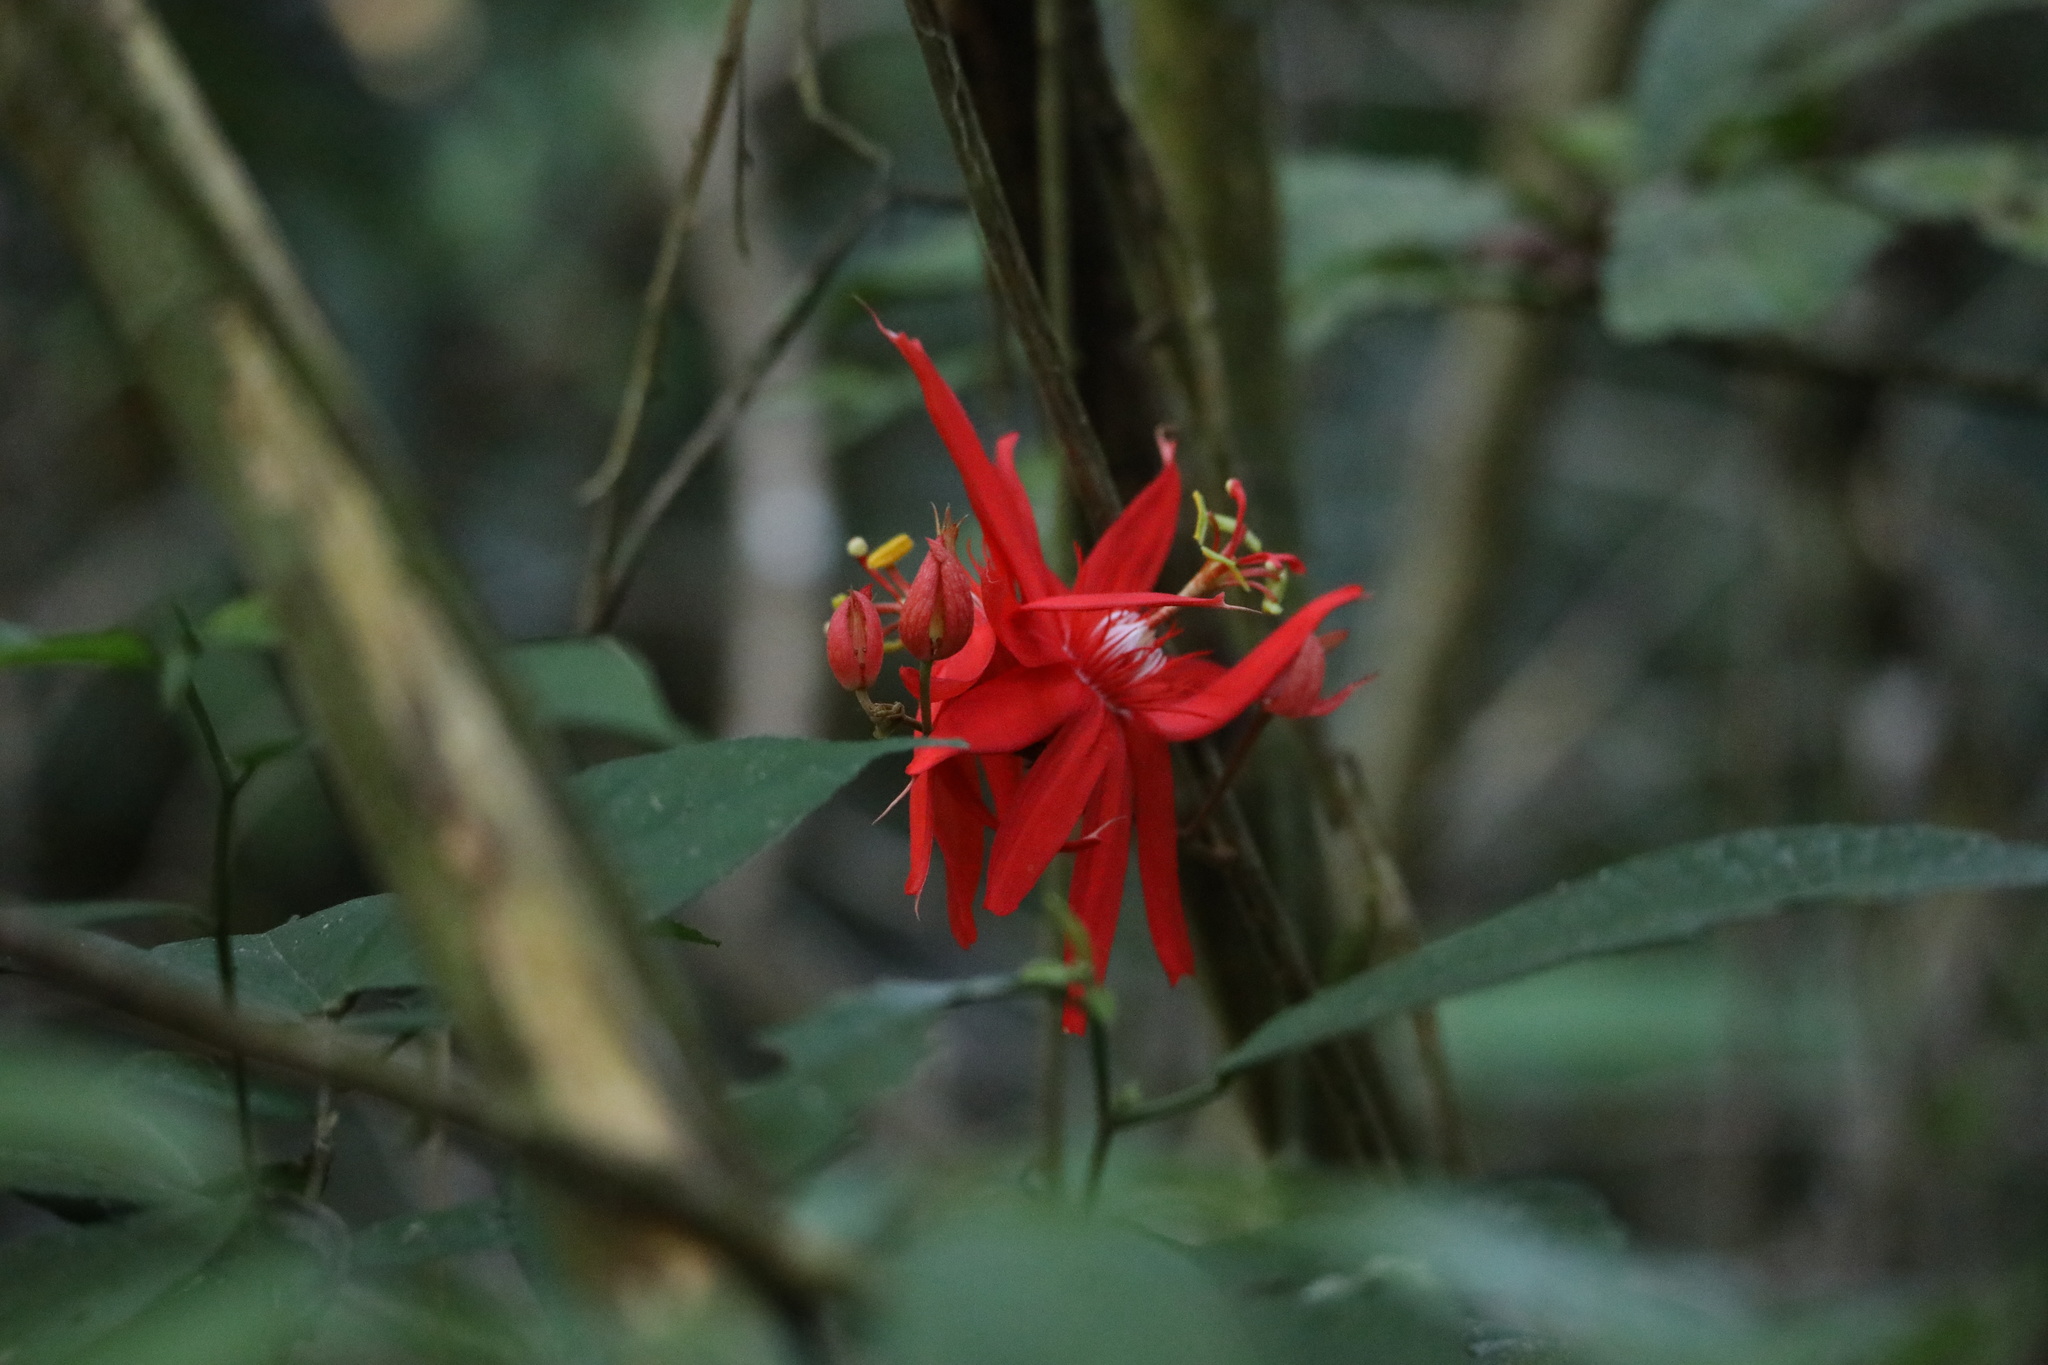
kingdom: Plantae
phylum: Tracheophyta
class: Magnoliopsida
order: Malpighiales
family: Passifloraceae
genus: Passiflora
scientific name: Passiflora vitifolia
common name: Perfumed passionflower
